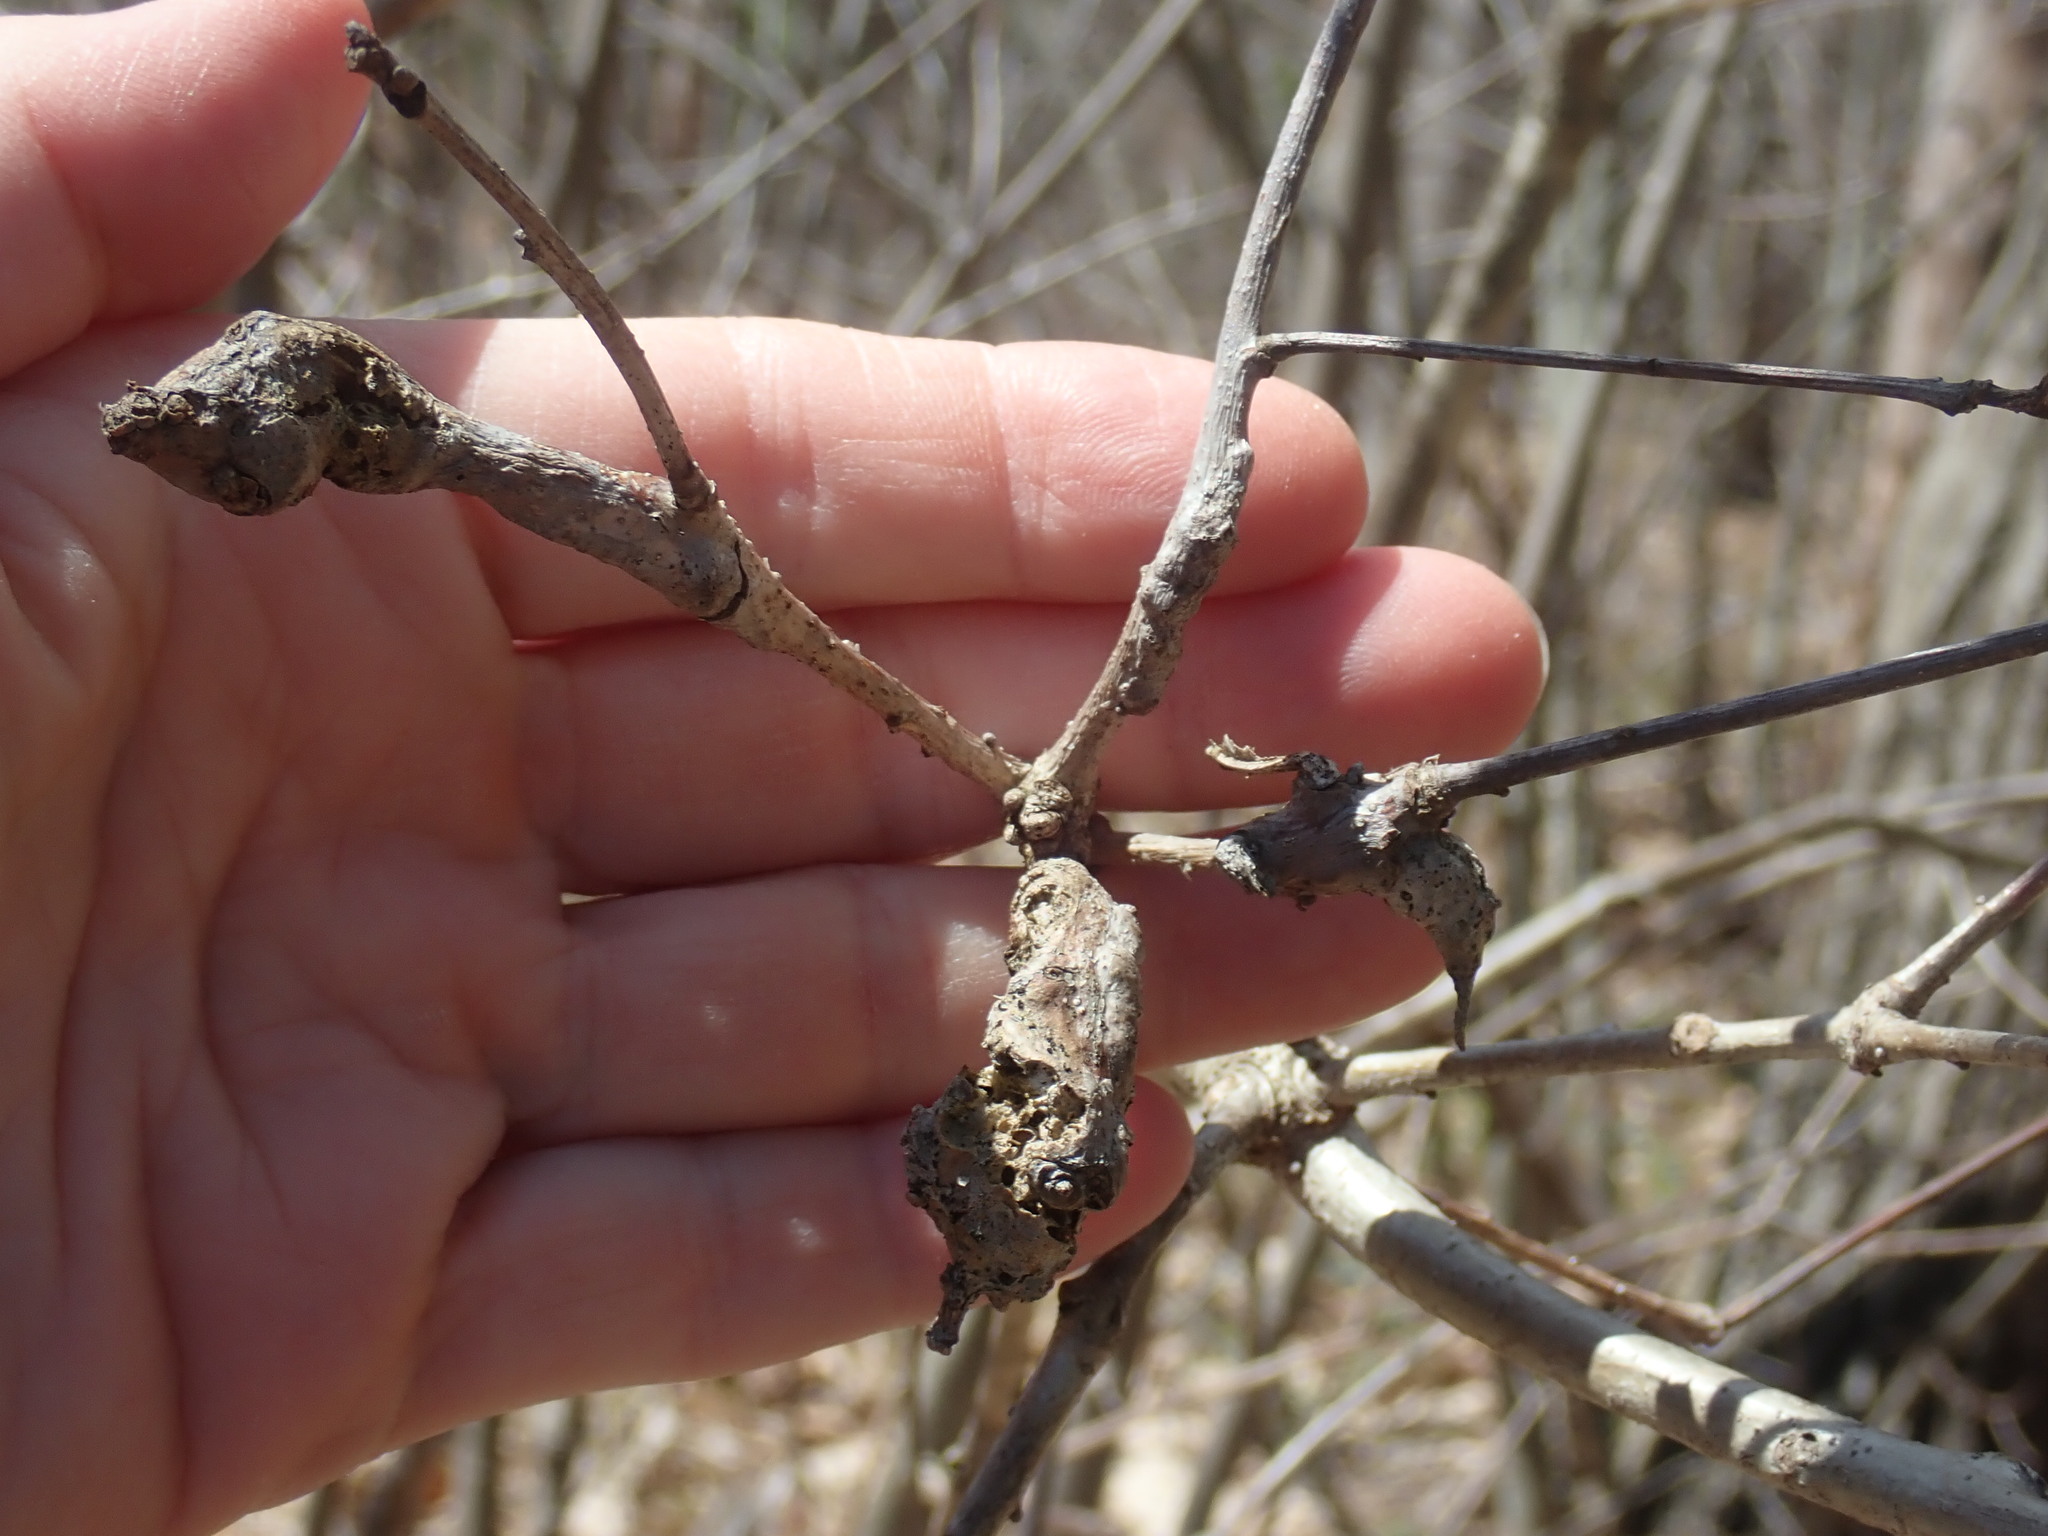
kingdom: Animalia
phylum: Arthropoda
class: Insecta
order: Hymenoptera
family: Cynipidae
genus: Neuroterus
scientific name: Neuroterus quercusbaccarum
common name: Common spangle gall
